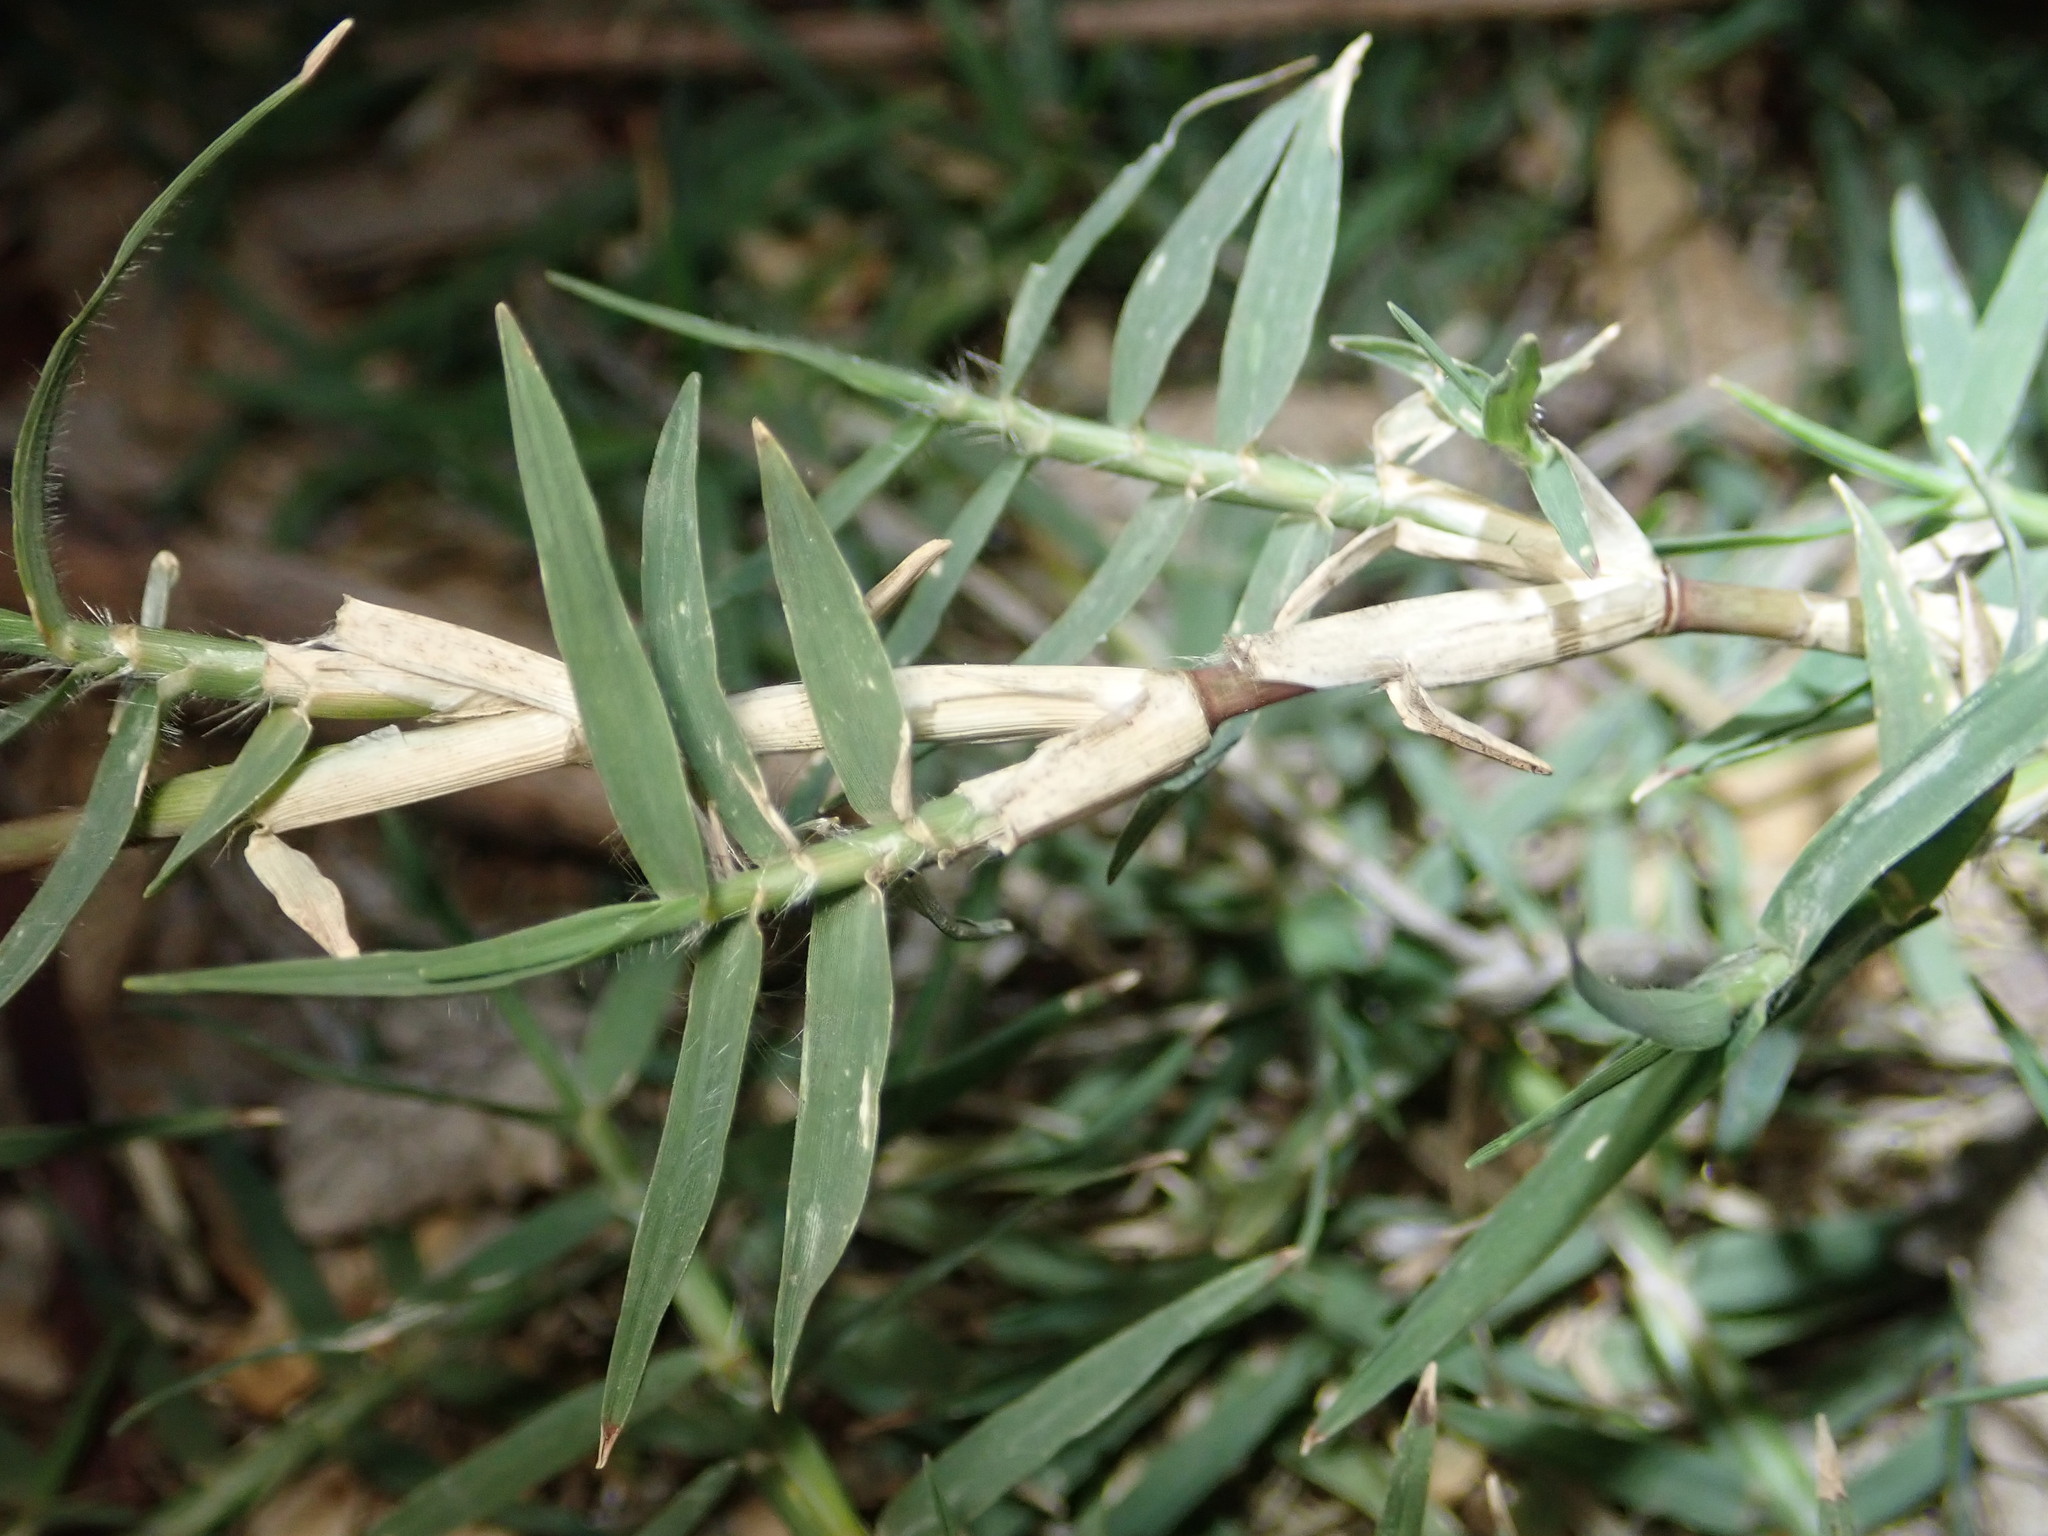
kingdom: Plantae
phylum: Tracheophyta
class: Liliopsida
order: Poales
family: Poaceae
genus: Cynodon
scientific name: Cynodon dactylon
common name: Bermuda grass
